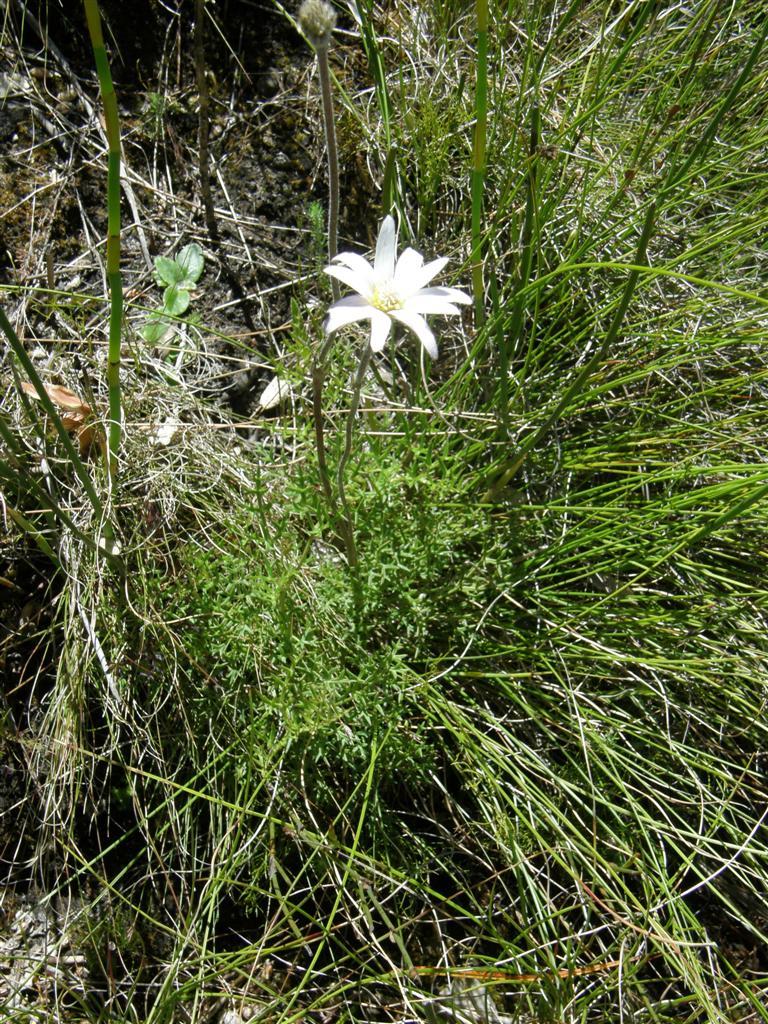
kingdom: Plantae
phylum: Tracheophyta
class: Magnoliopsida
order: Ranunculales
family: Ranunculaceae
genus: Knowltonia
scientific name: Knowltonia tenuifolia
